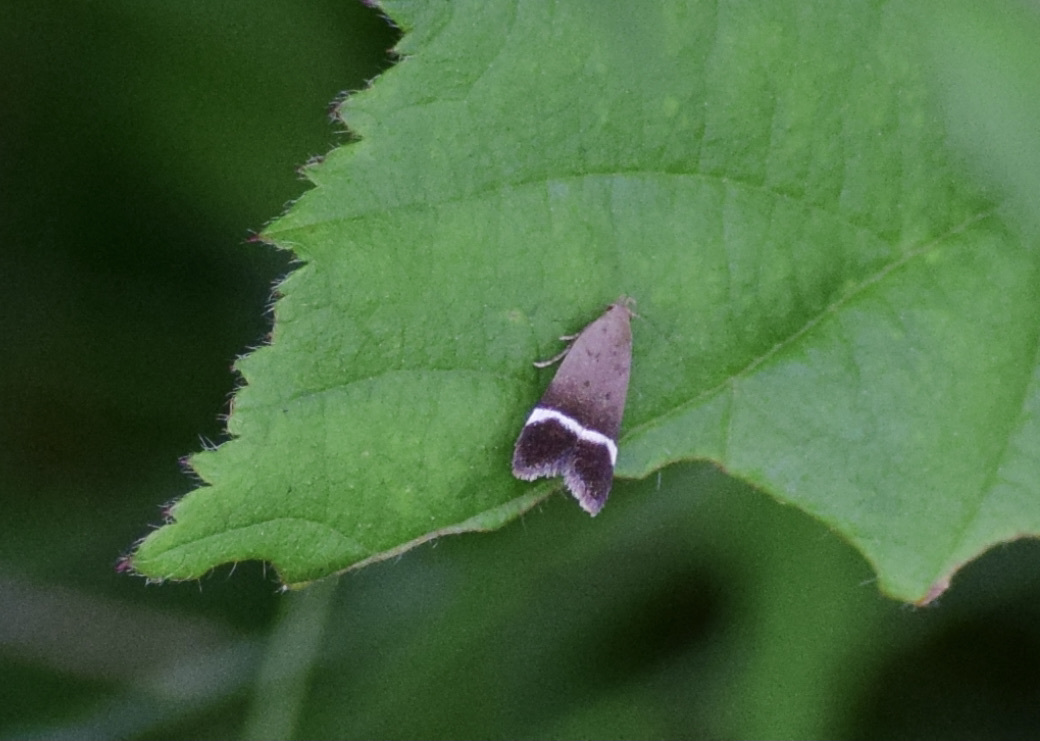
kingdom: Animalia
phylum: Arthropoda
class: Insecta
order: Lepidoptera
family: Gelechiidae
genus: Anacampsis
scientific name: Anacampsis agrimoniella
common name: Agrimony anacampsis moth
